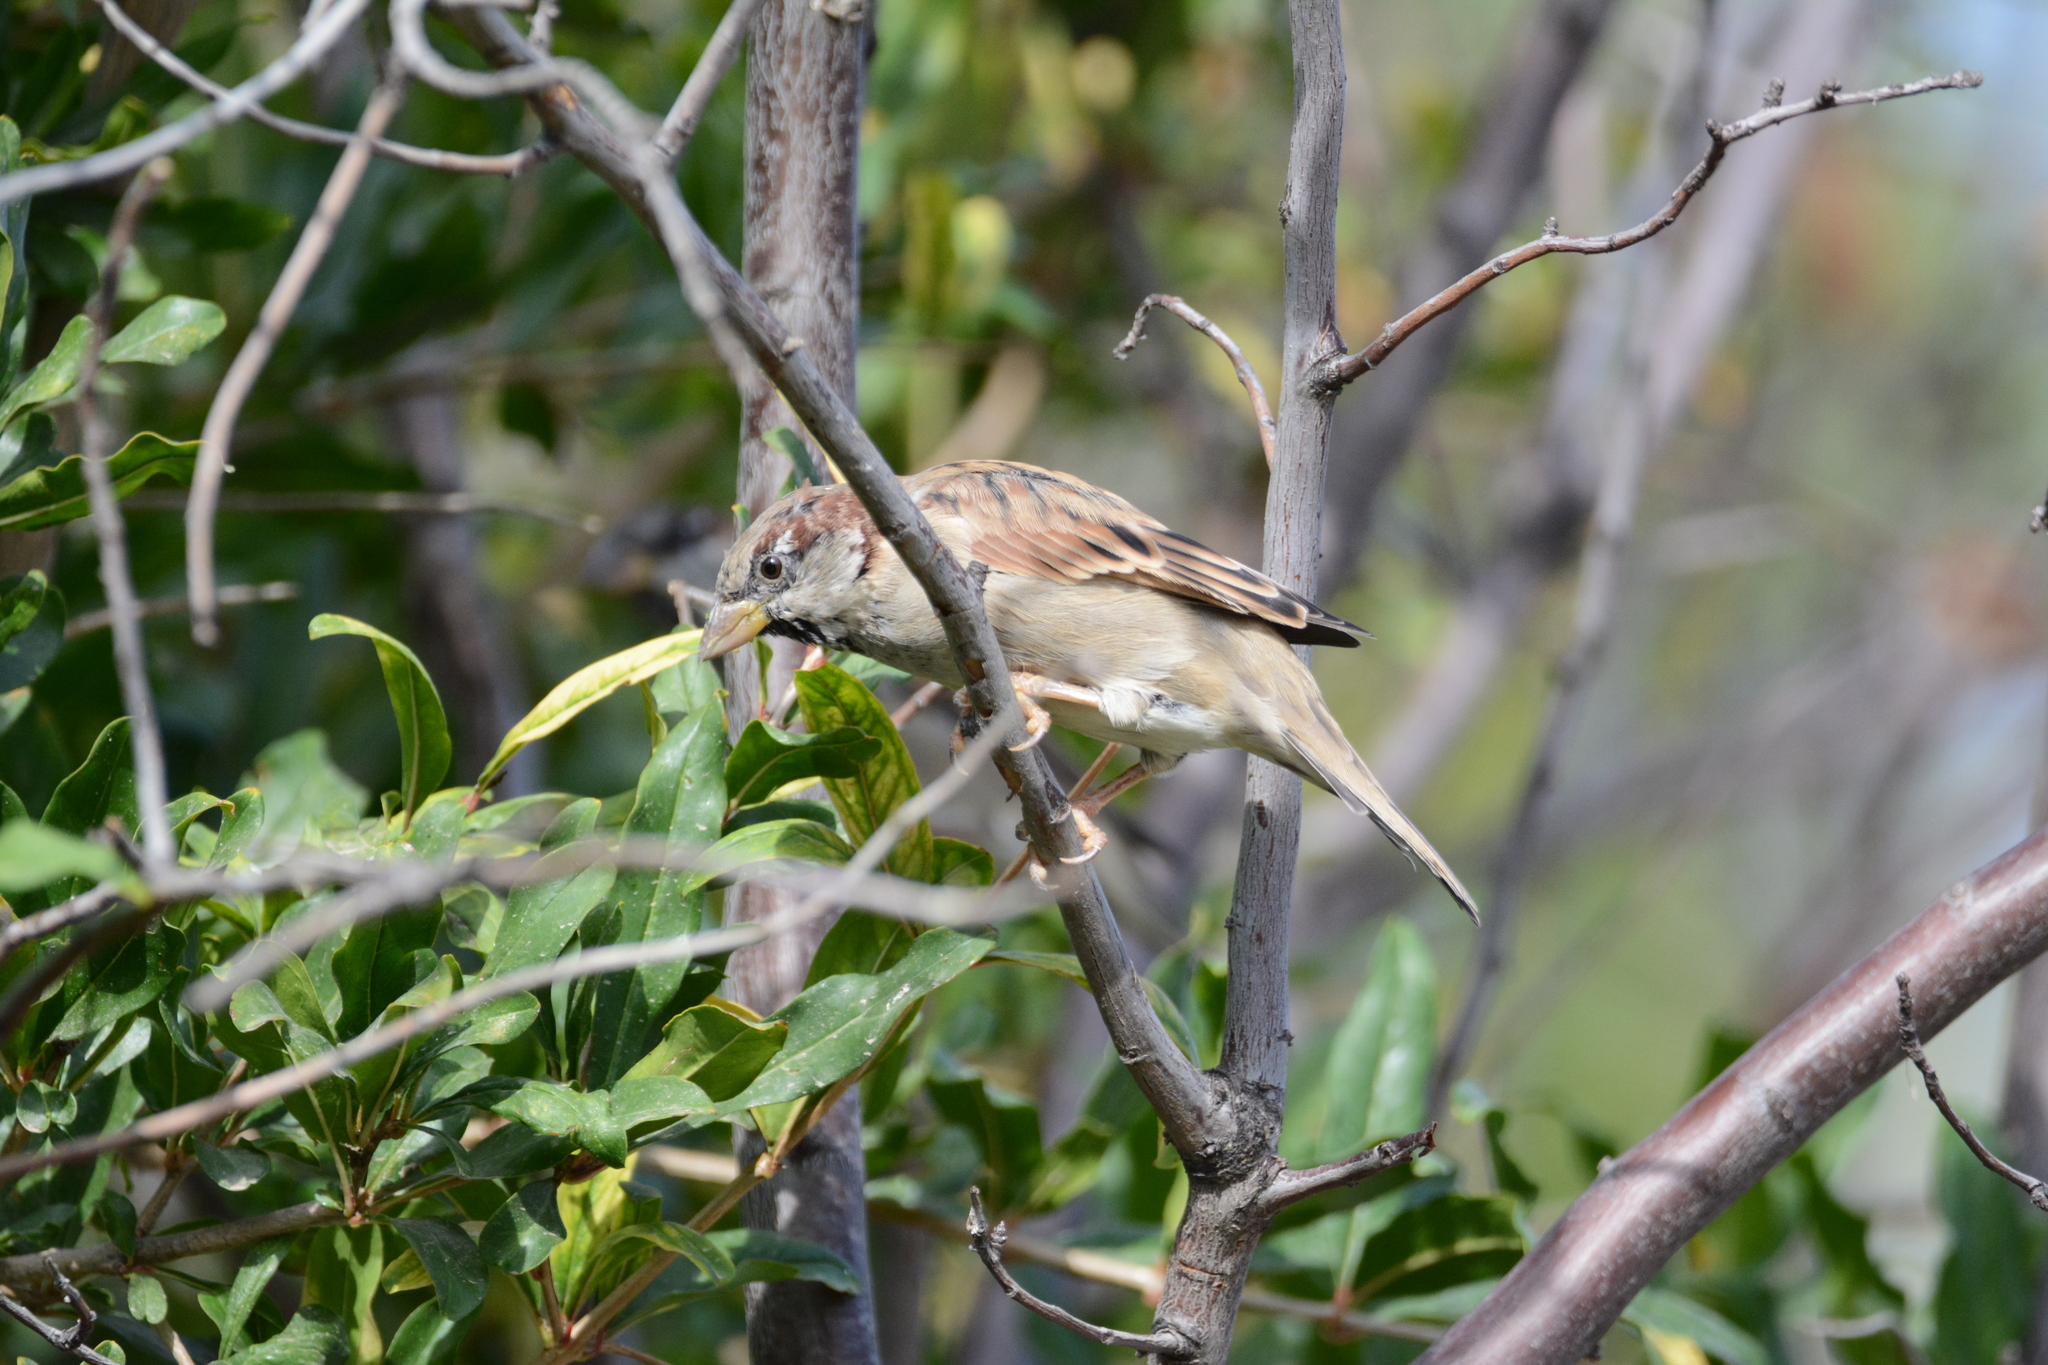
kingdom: Animalia
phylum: Chordata
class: Aves
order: Passeriformes
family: Passeridae
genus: Passer
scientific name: Passer domesticus
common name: House sparrow
